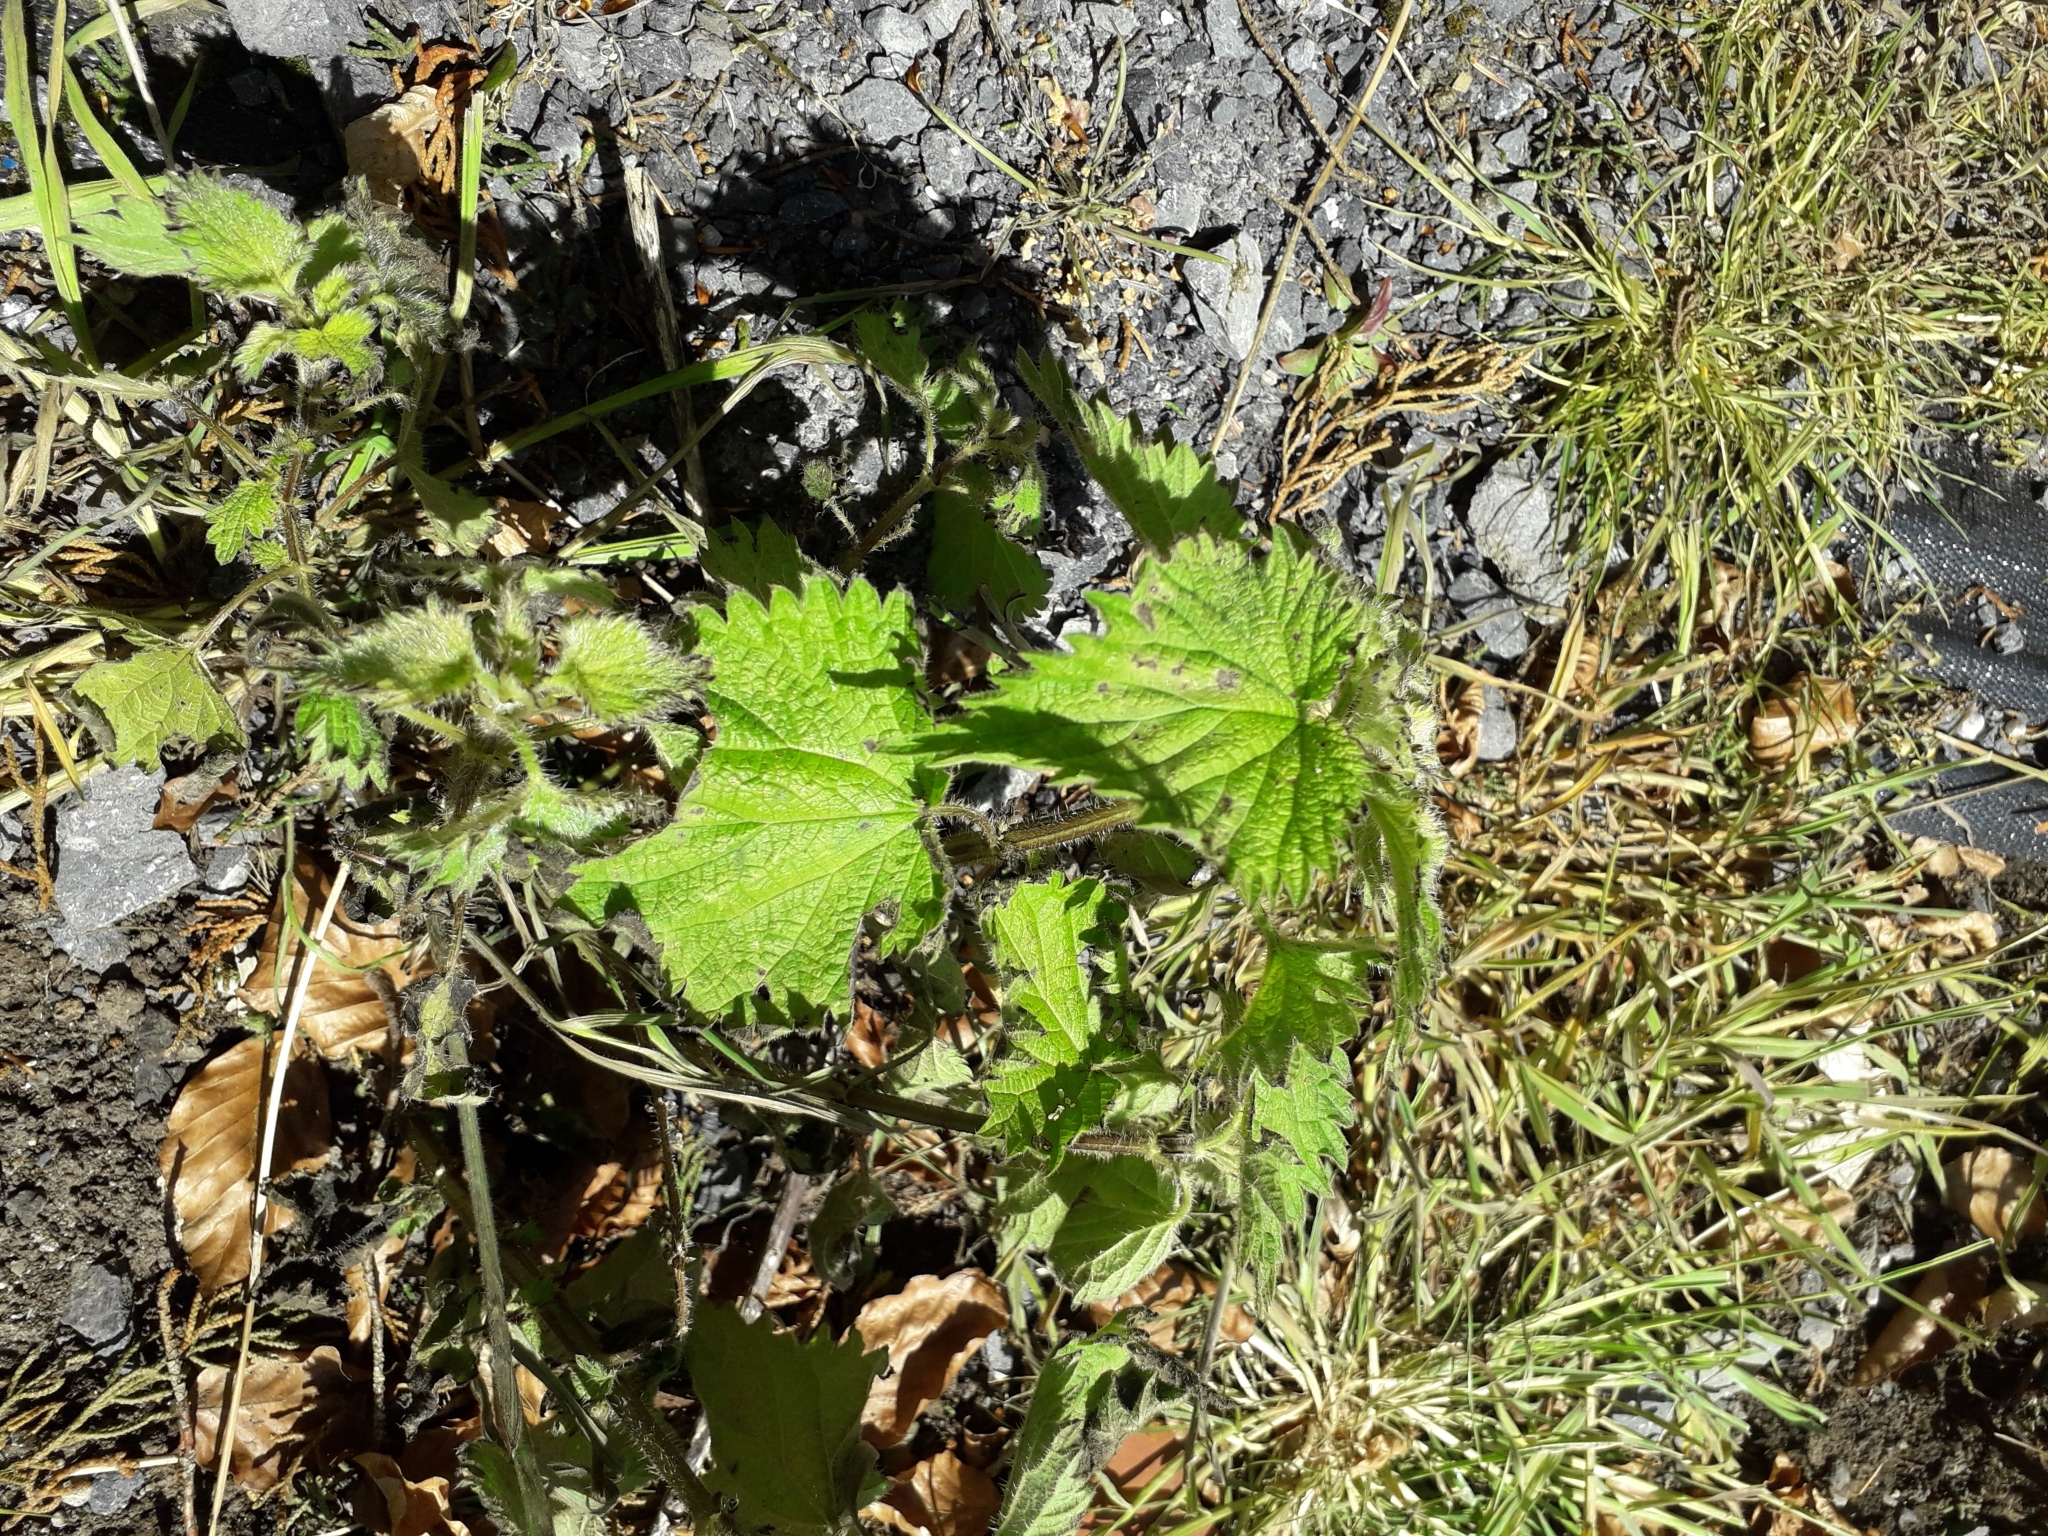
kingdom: Plantae
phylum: Tracheophyta
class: Magnoliopsida
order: Rosales
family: Urticaceae
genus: Urtica
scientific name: Urtica dioica
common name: Common nettle
